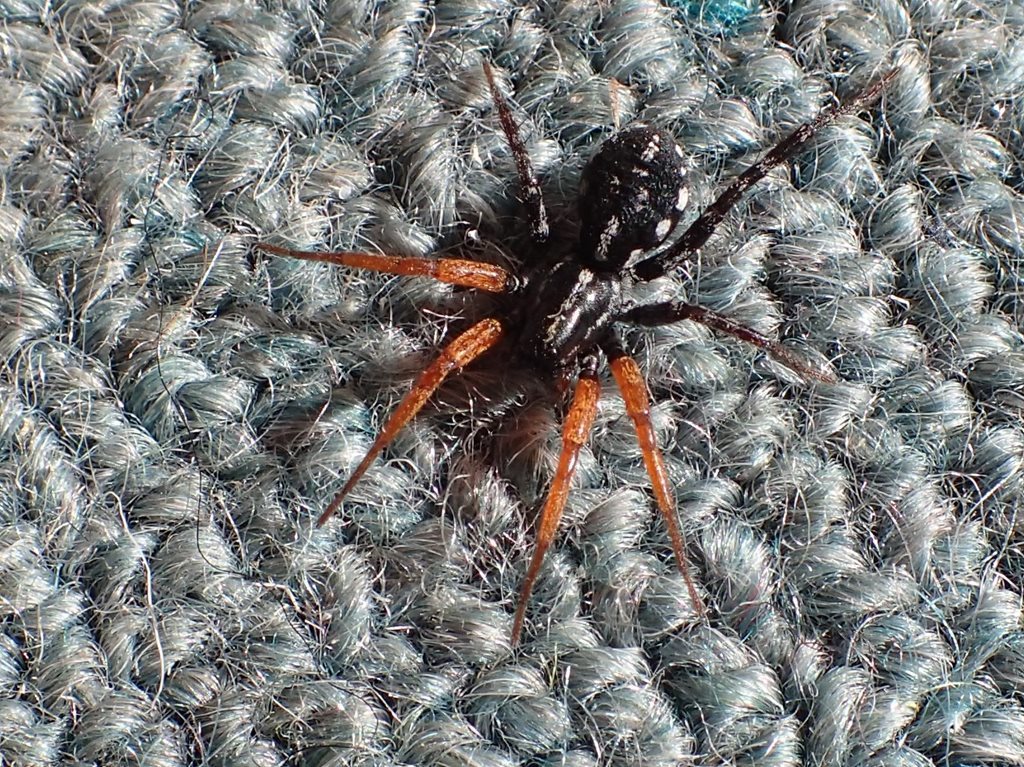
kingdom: Animalia
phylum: Arthropoda
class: Arachnida
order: Araneae
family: Corinnidae
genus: Nyssus
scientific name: Nyssus coloripes
